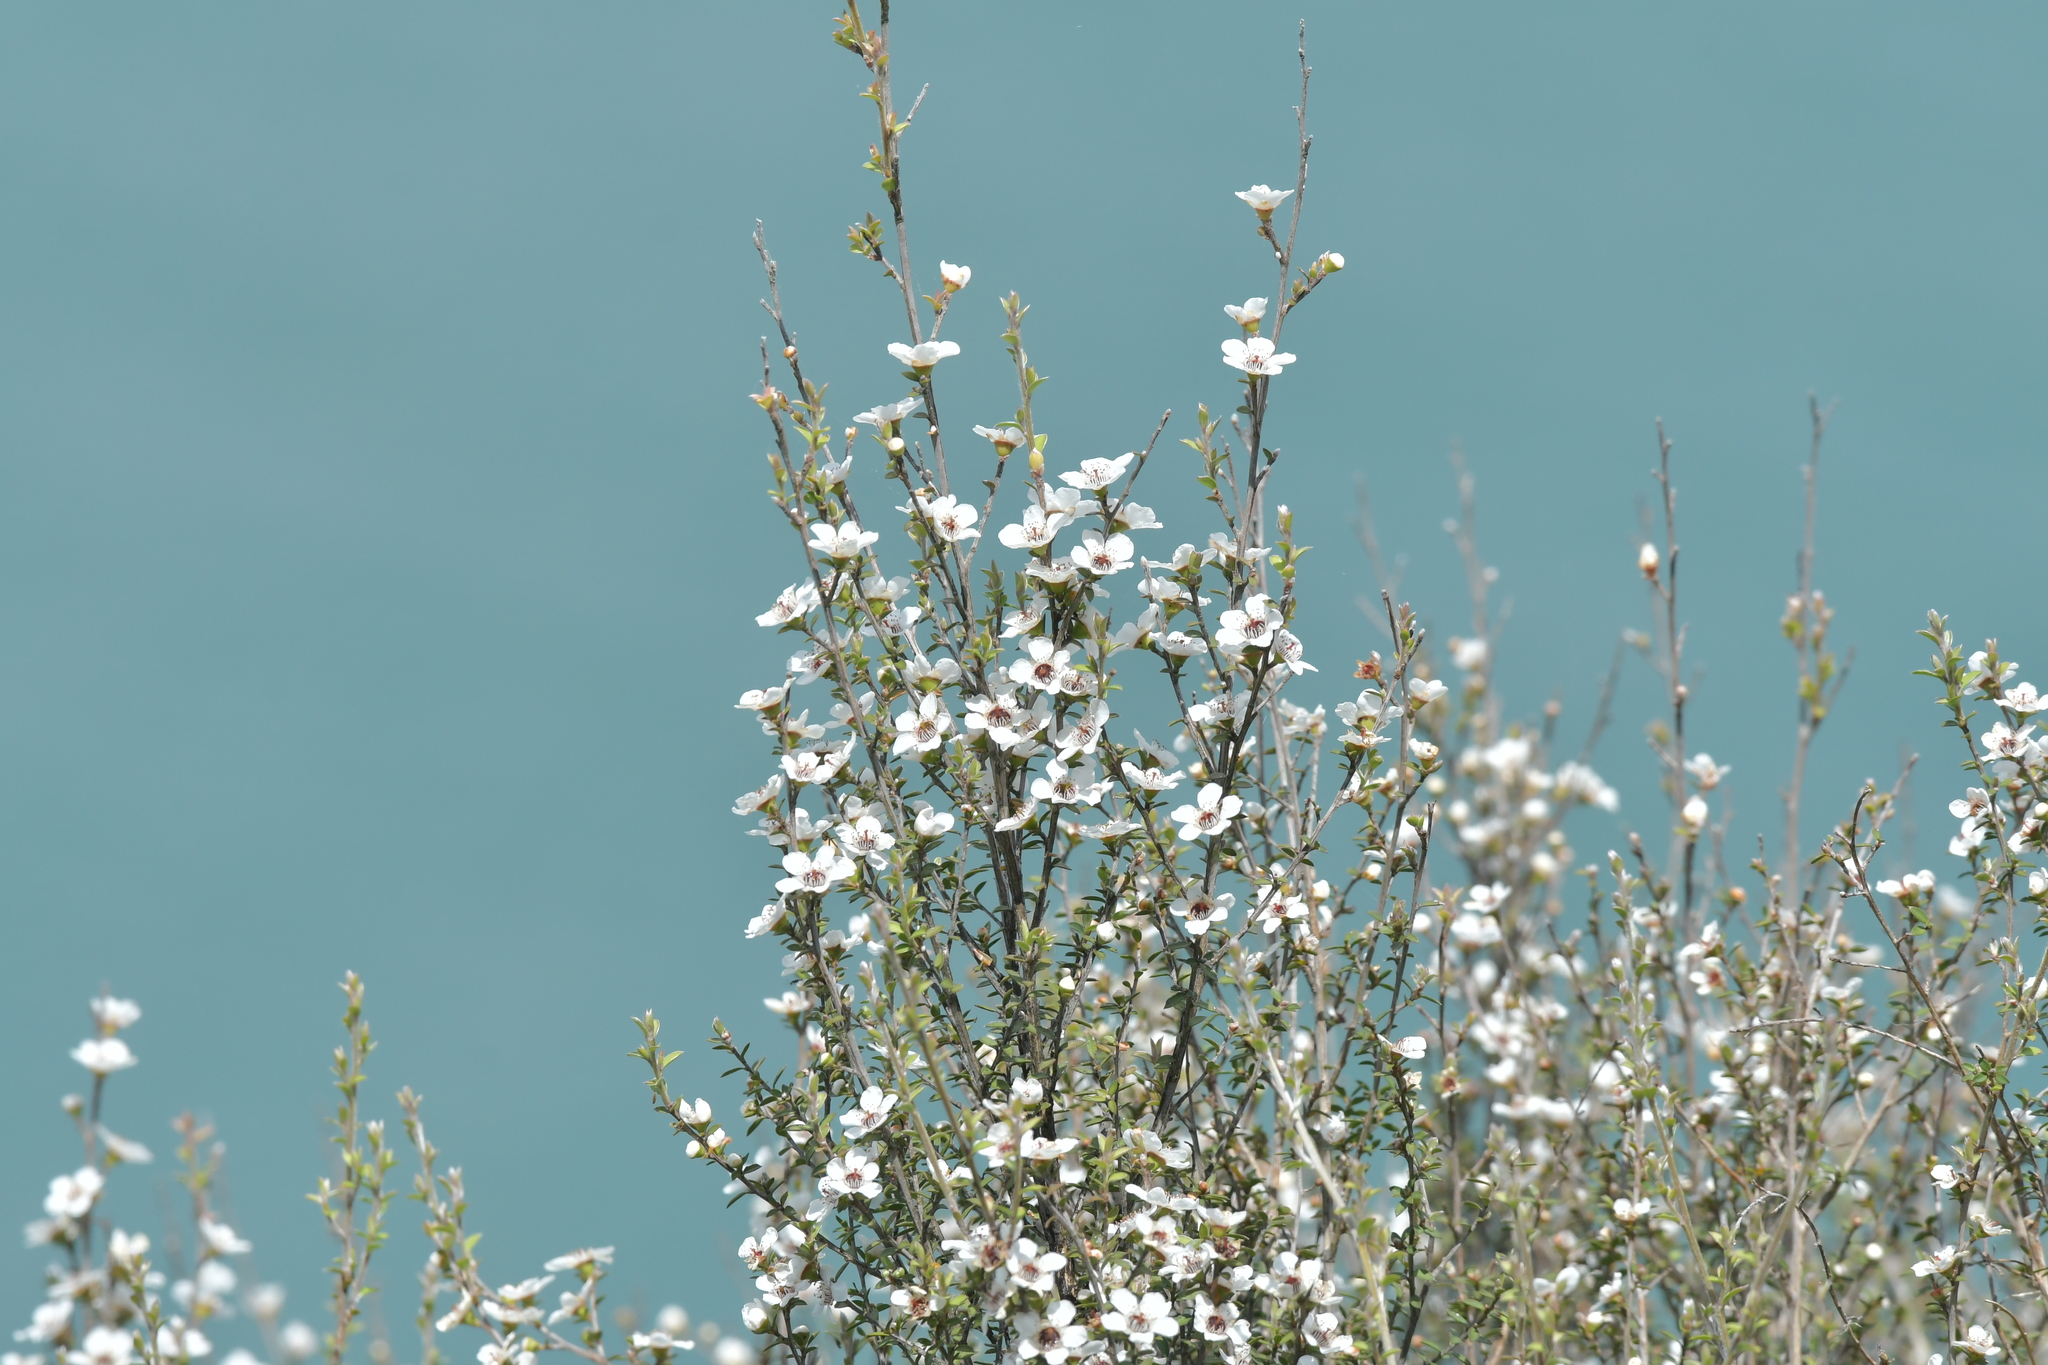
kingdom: Plantae
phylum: Tracheophyta
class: Magnoliopsida
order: Myrtales
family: Myrtaceae
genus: Leptospermum
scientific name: Leptospermum scoparium
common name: Broom tea-tree
